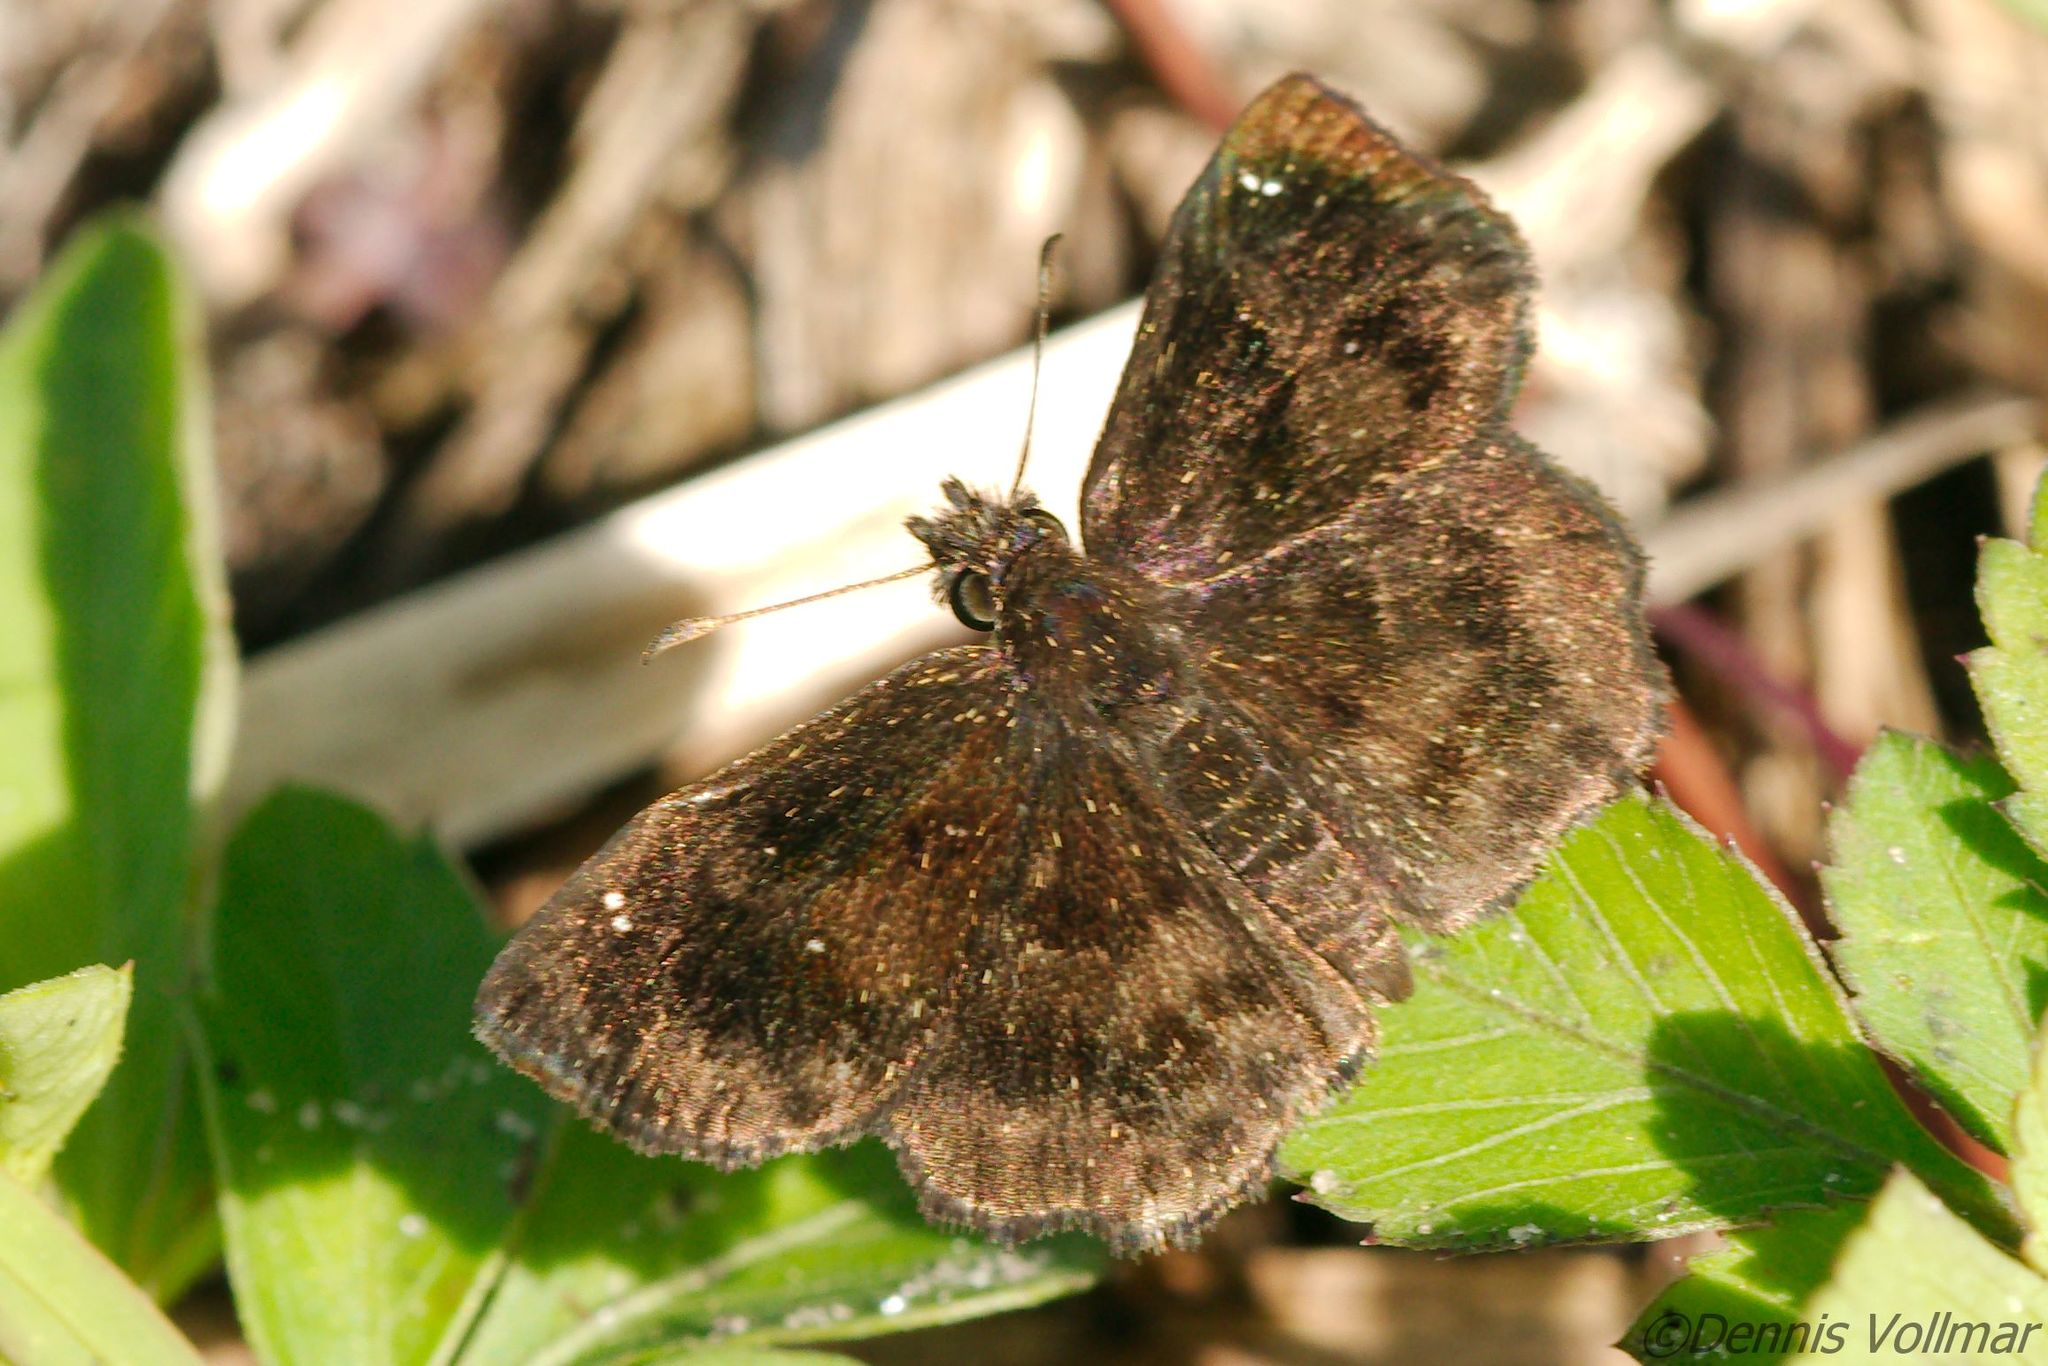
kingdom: Animalia
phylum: Arthropoda
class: Insecta
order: Lepidoptera
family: Hesperiidae
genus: Staphylus
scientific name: Staphylus mazans
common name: Mazans scallopwing
